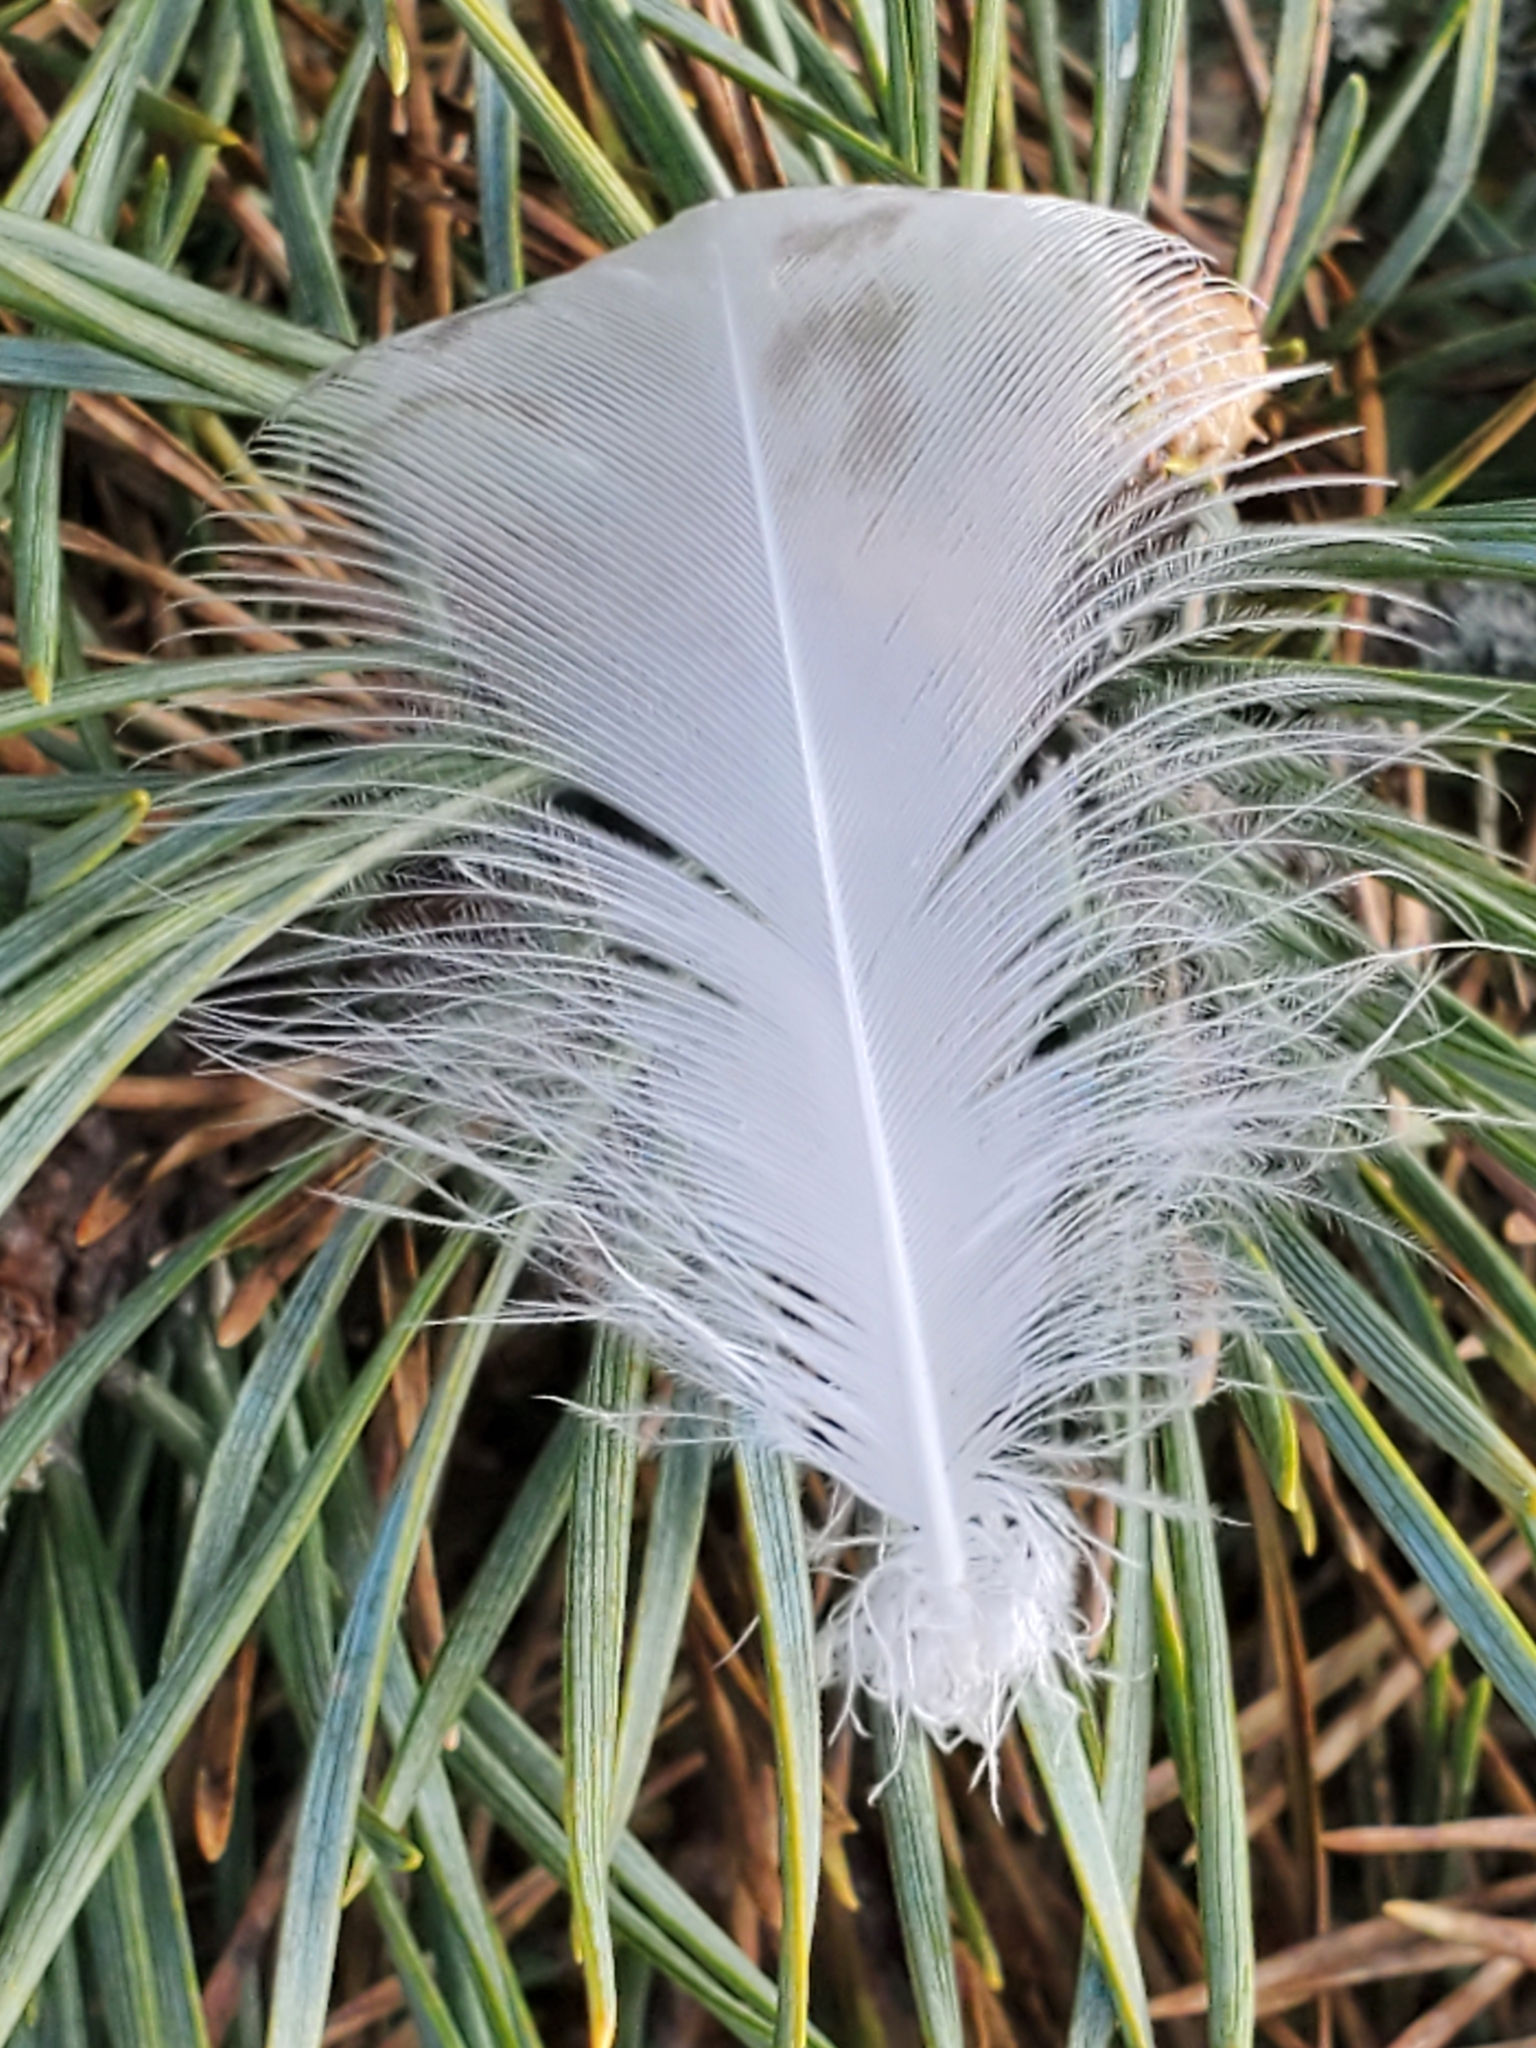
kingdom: Animalia
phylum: Chordata
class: Aves
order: Charadriiformes
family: Laridae
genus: Larus
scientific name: Larus
